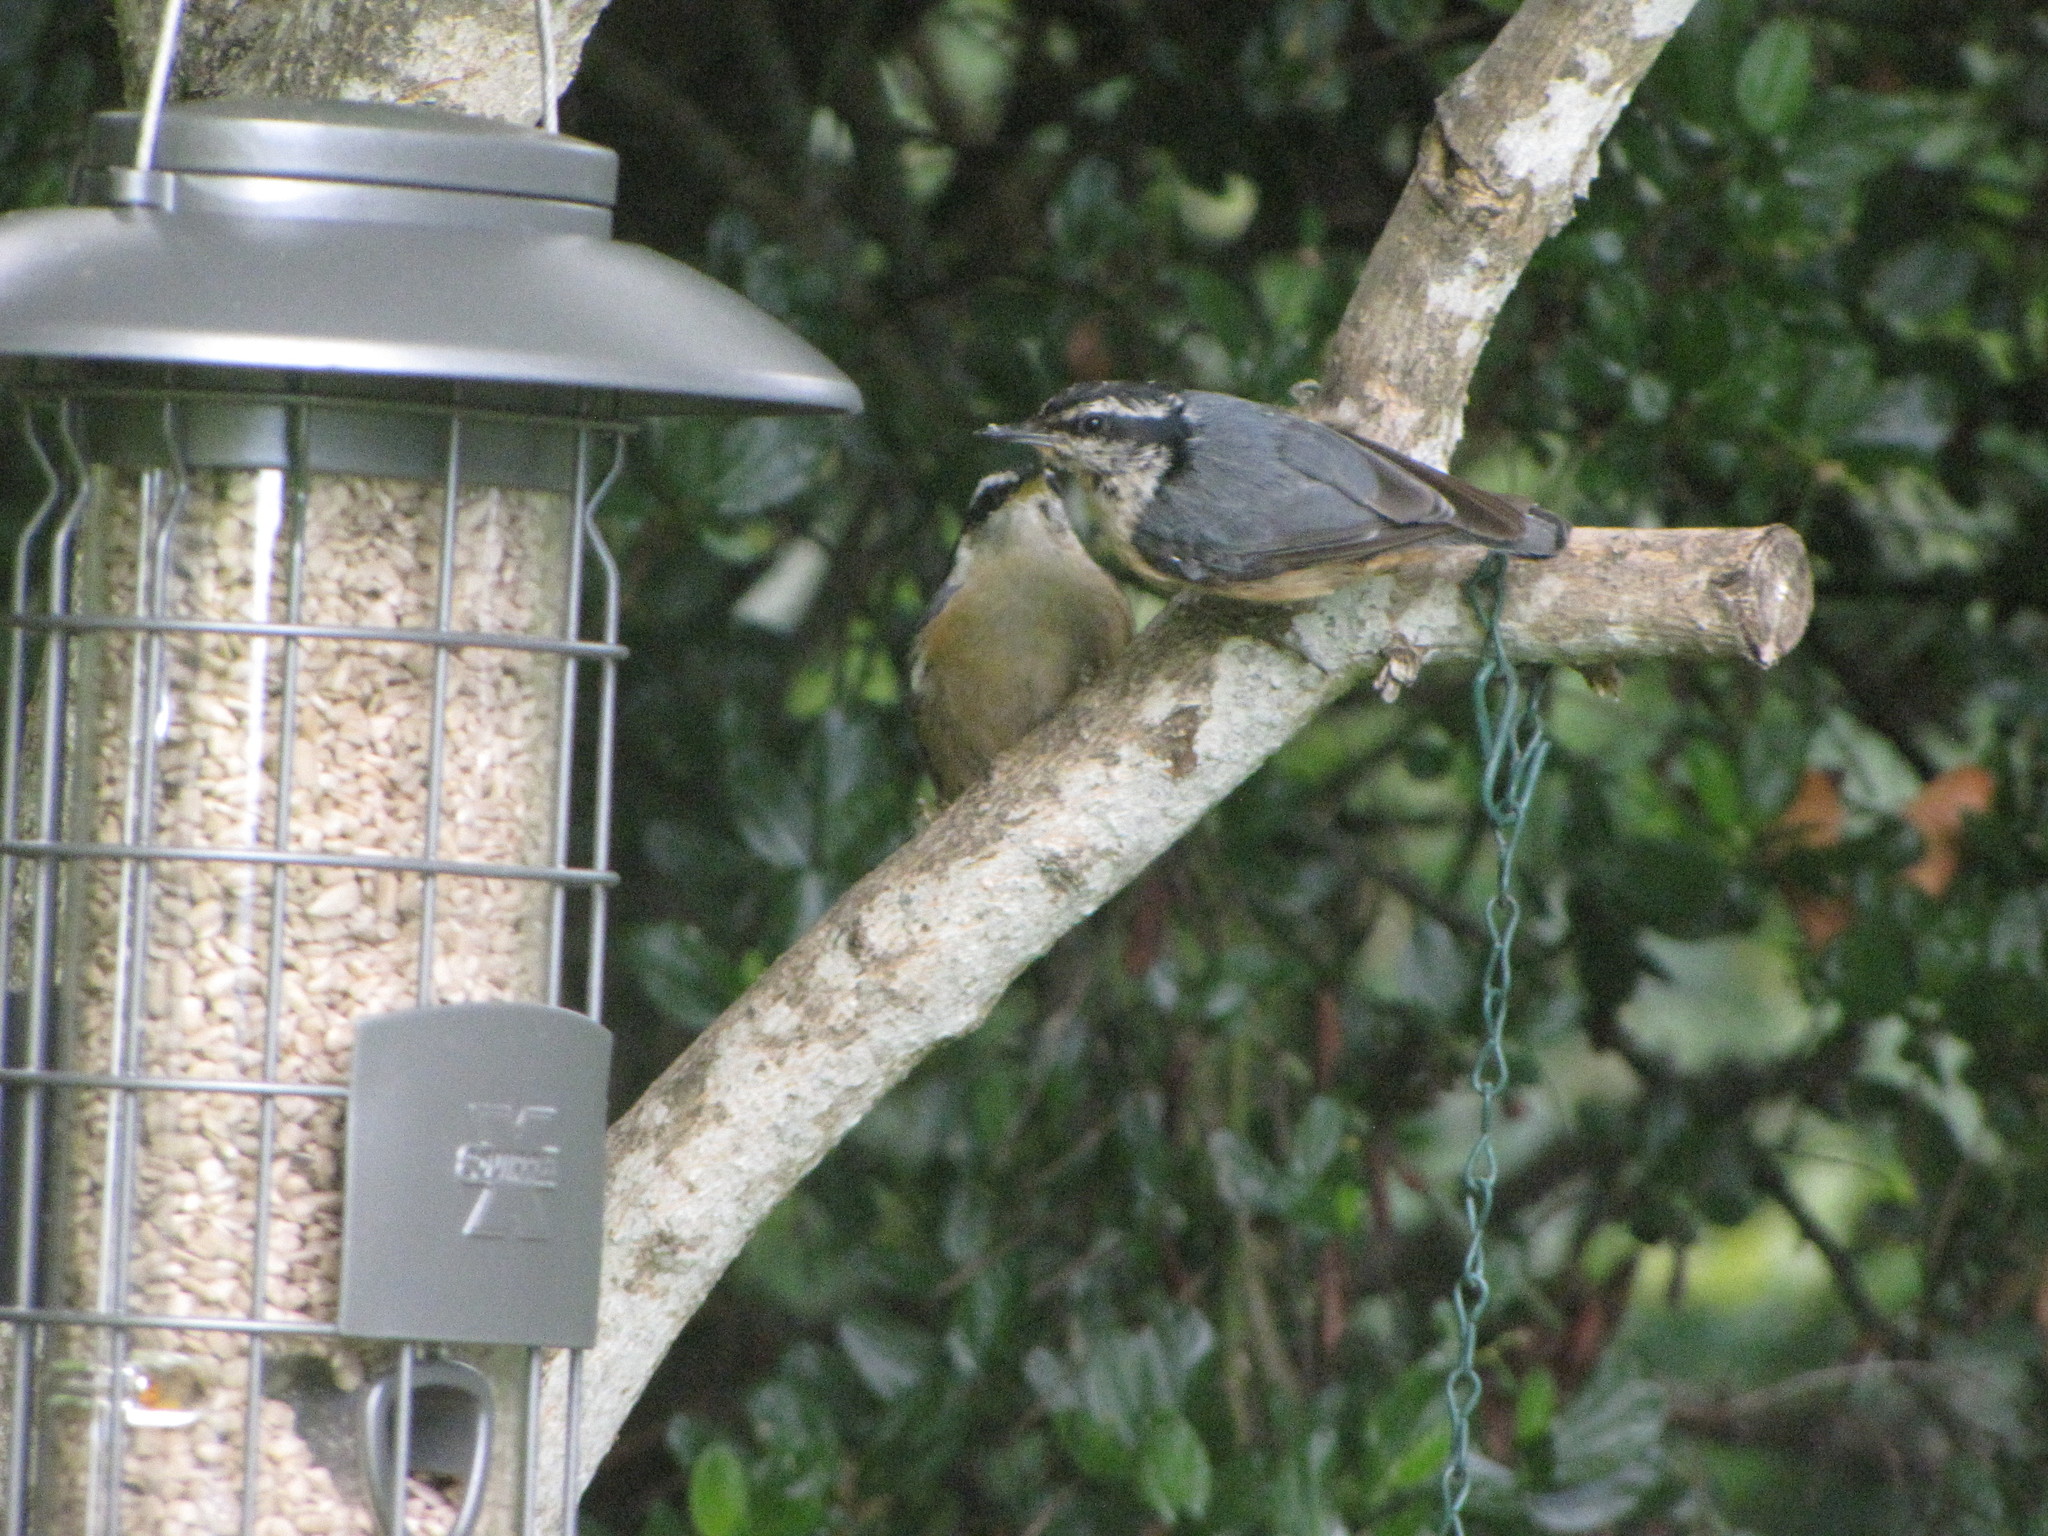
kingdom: Animalia
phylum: Chordata
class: Aves
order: Passeriformes
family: Sittidae
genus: Sitta
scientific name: Sitta canadensis
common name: Red-breasted nuthatch
